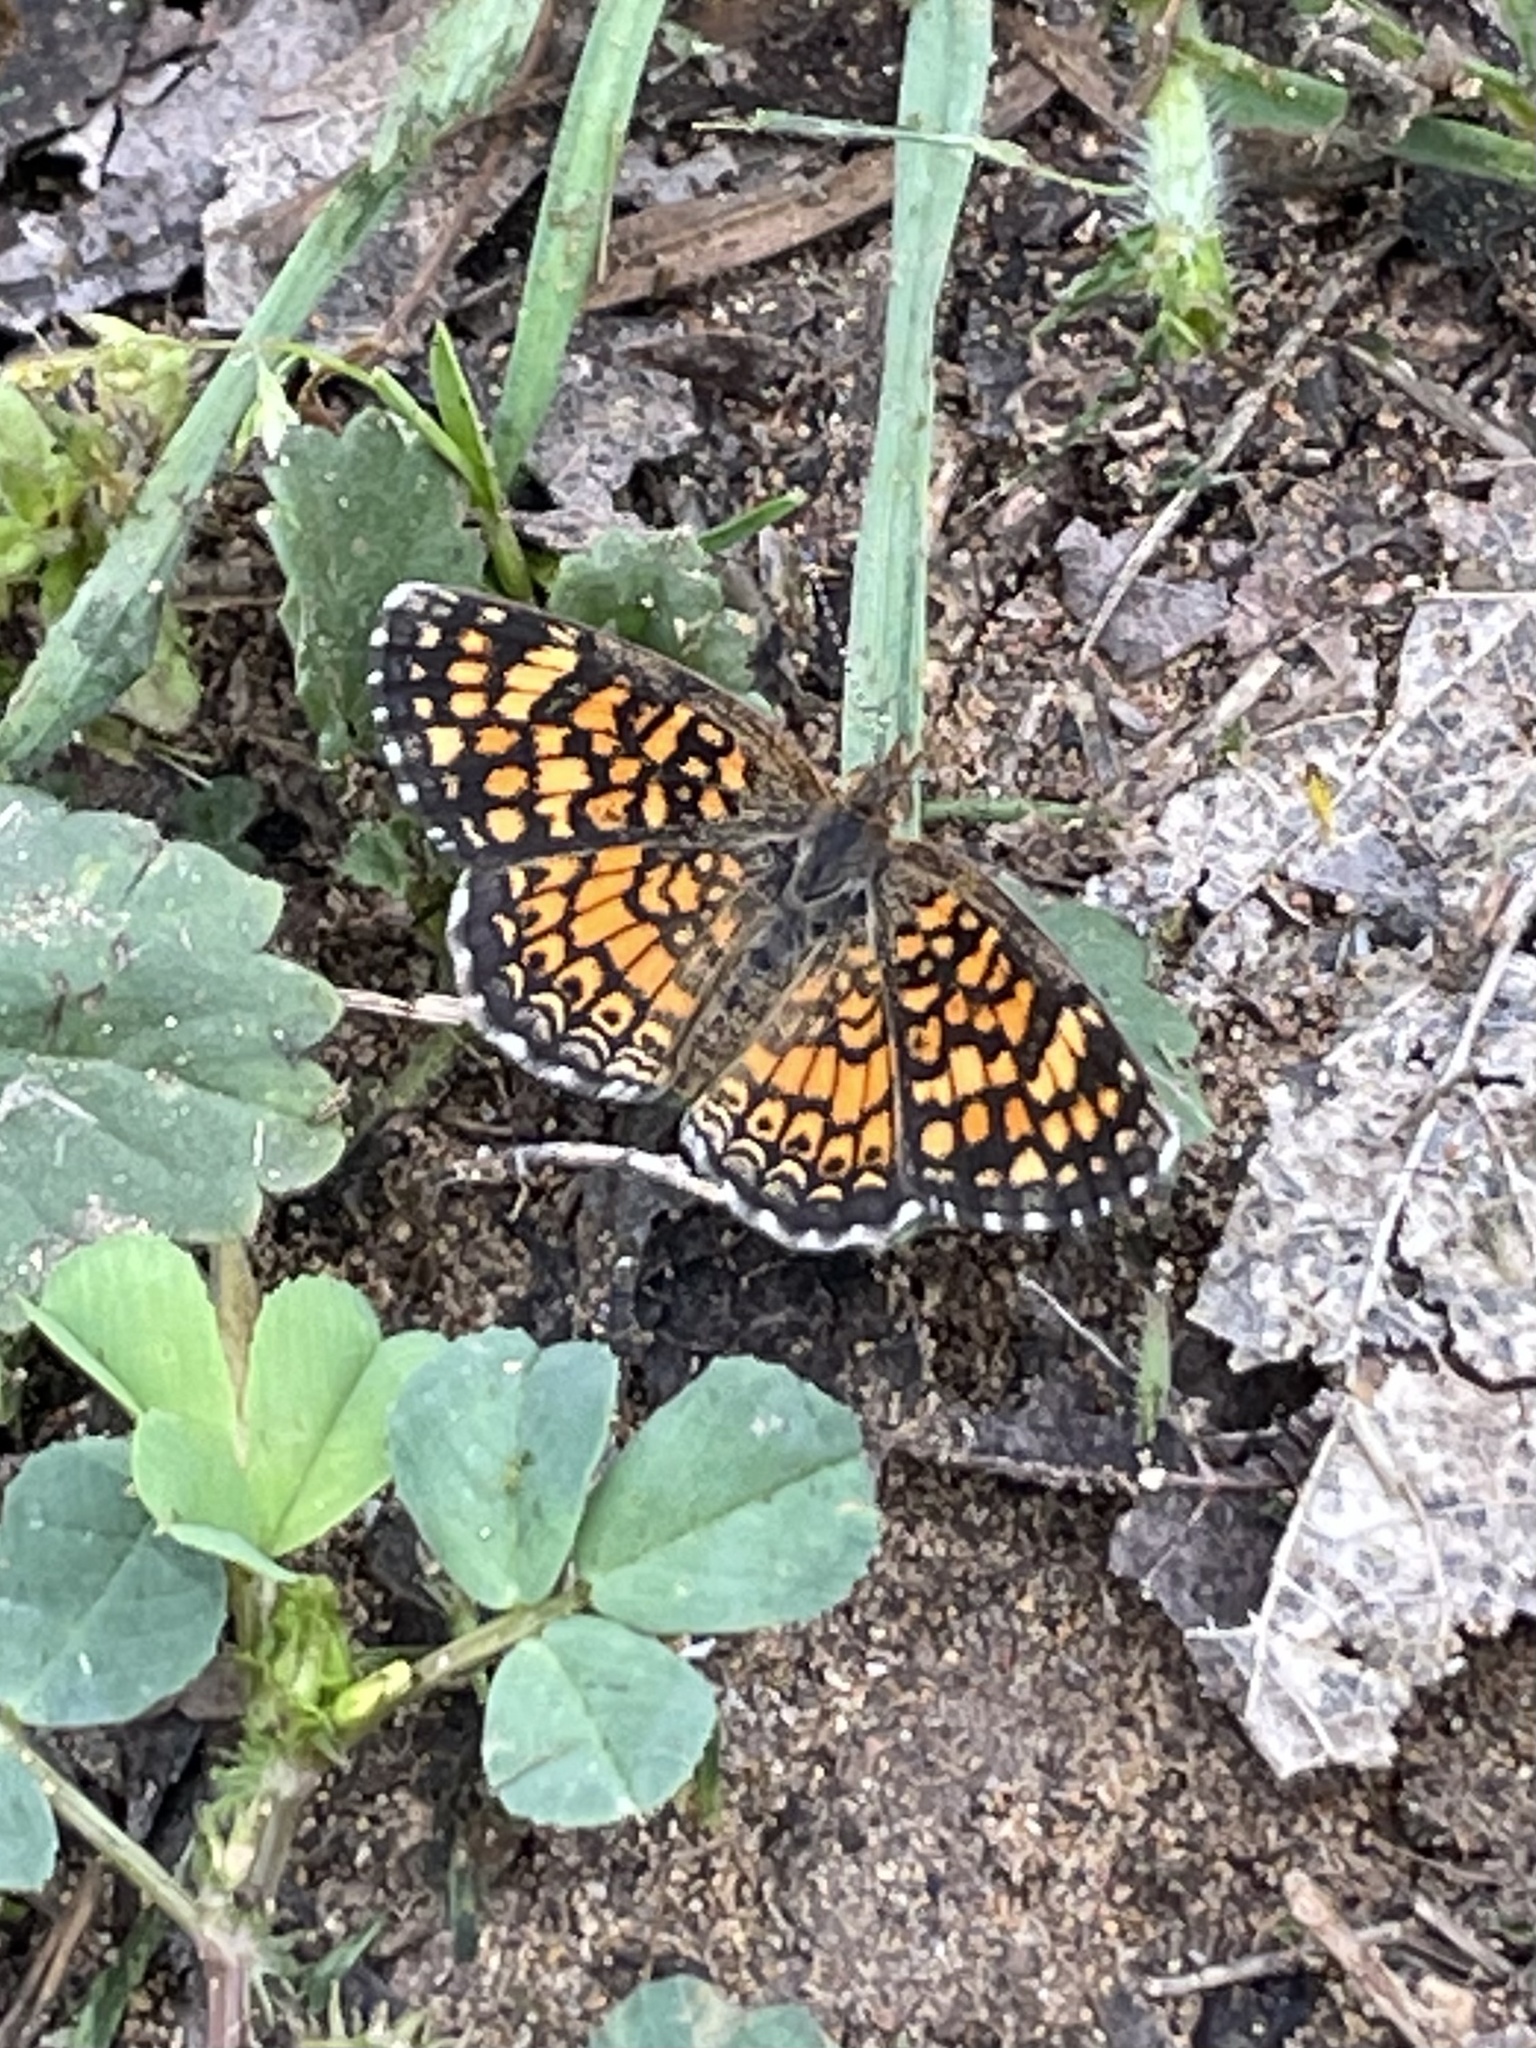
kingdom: Animalia
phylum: Arthropoda
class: Insecta
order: Lepidoptera
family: Nymphalidae
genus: Phyciodes
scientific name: Phyciodes vesta
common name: Vesta crescent
